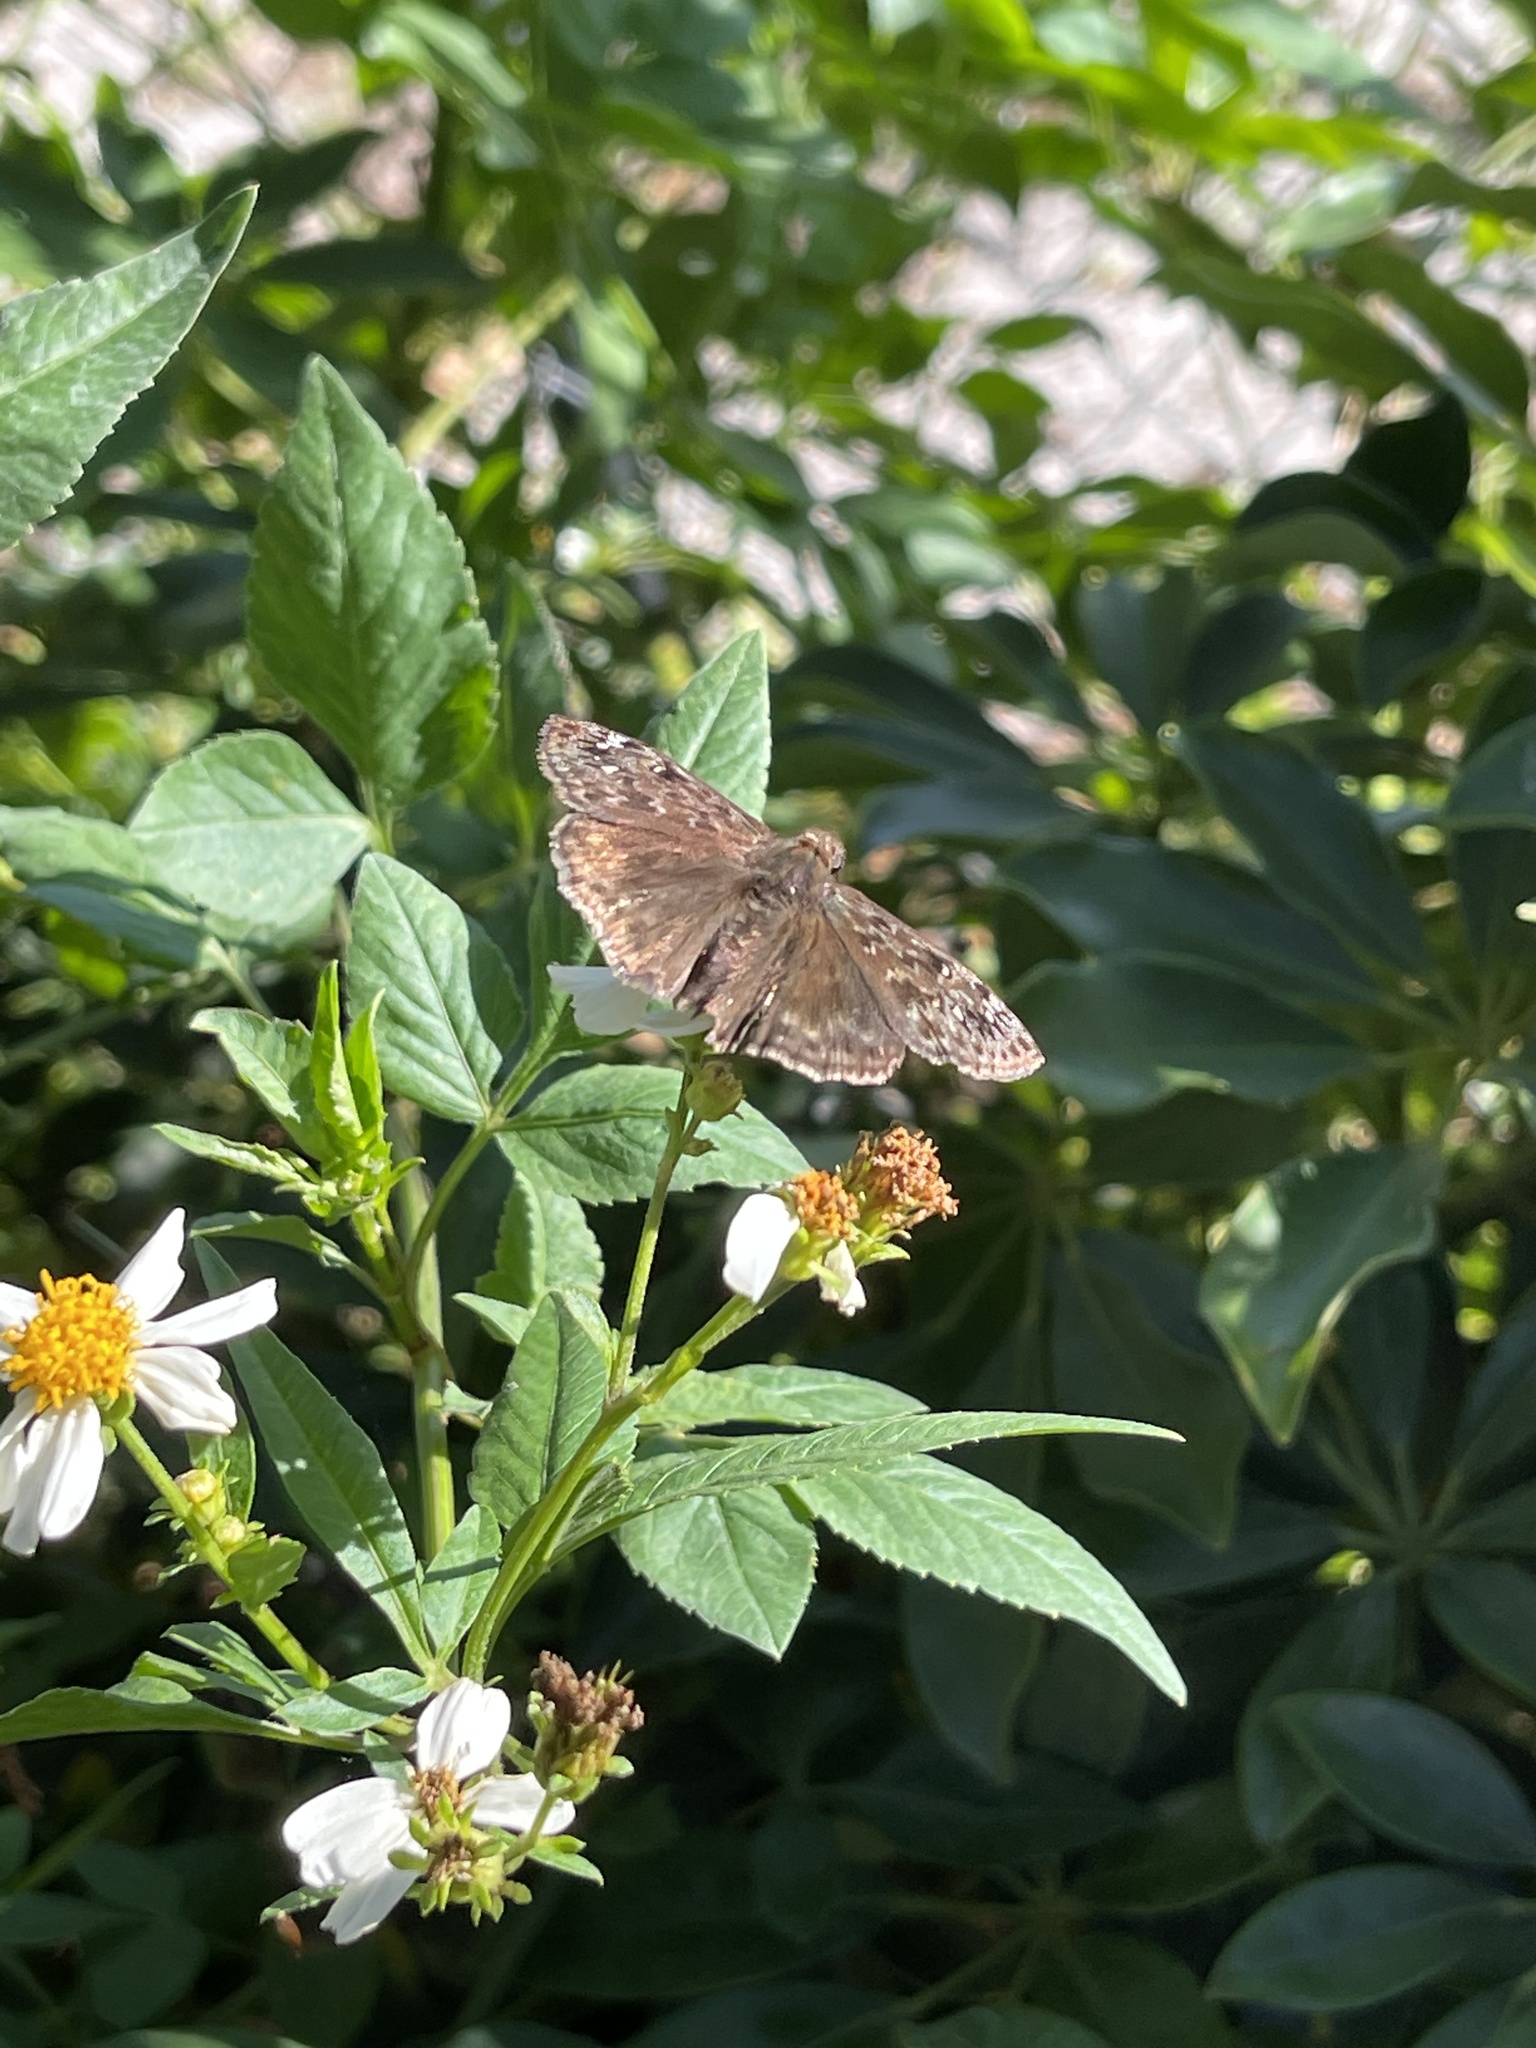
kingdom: Animalia
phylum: Arthropoda
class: Insecta
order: Lepidoptera
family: Hesperiidae
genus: Erynnis
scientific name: Erynnis horatius
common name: Horace's duskywing
